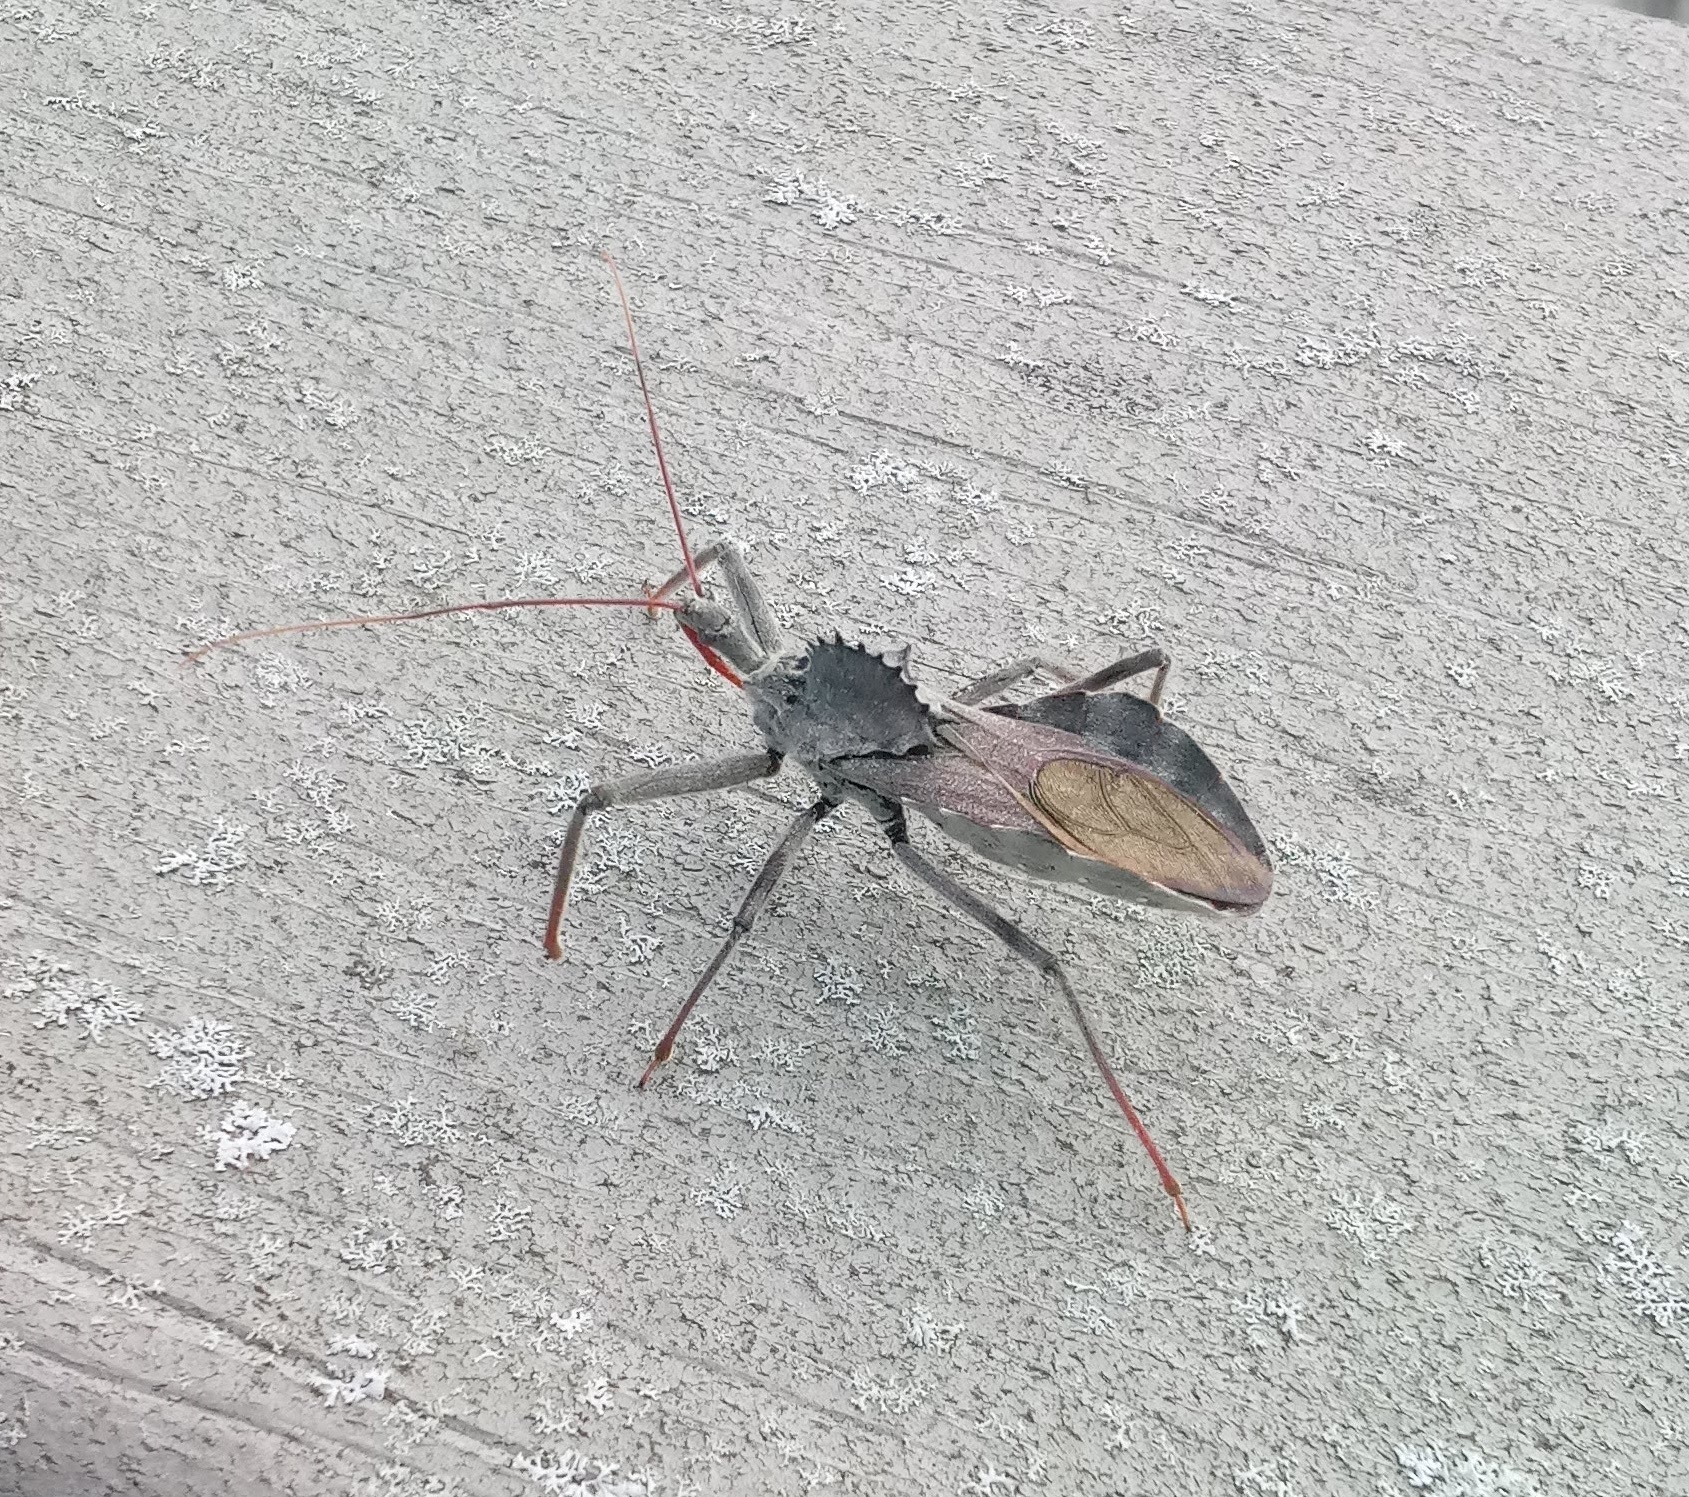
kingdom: Animalia
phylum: Arthropoda
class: Insecta
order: Hemiptera
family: Reduviidae
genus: Arilus
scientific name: Arilus cristatus
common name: North american wheel bug
